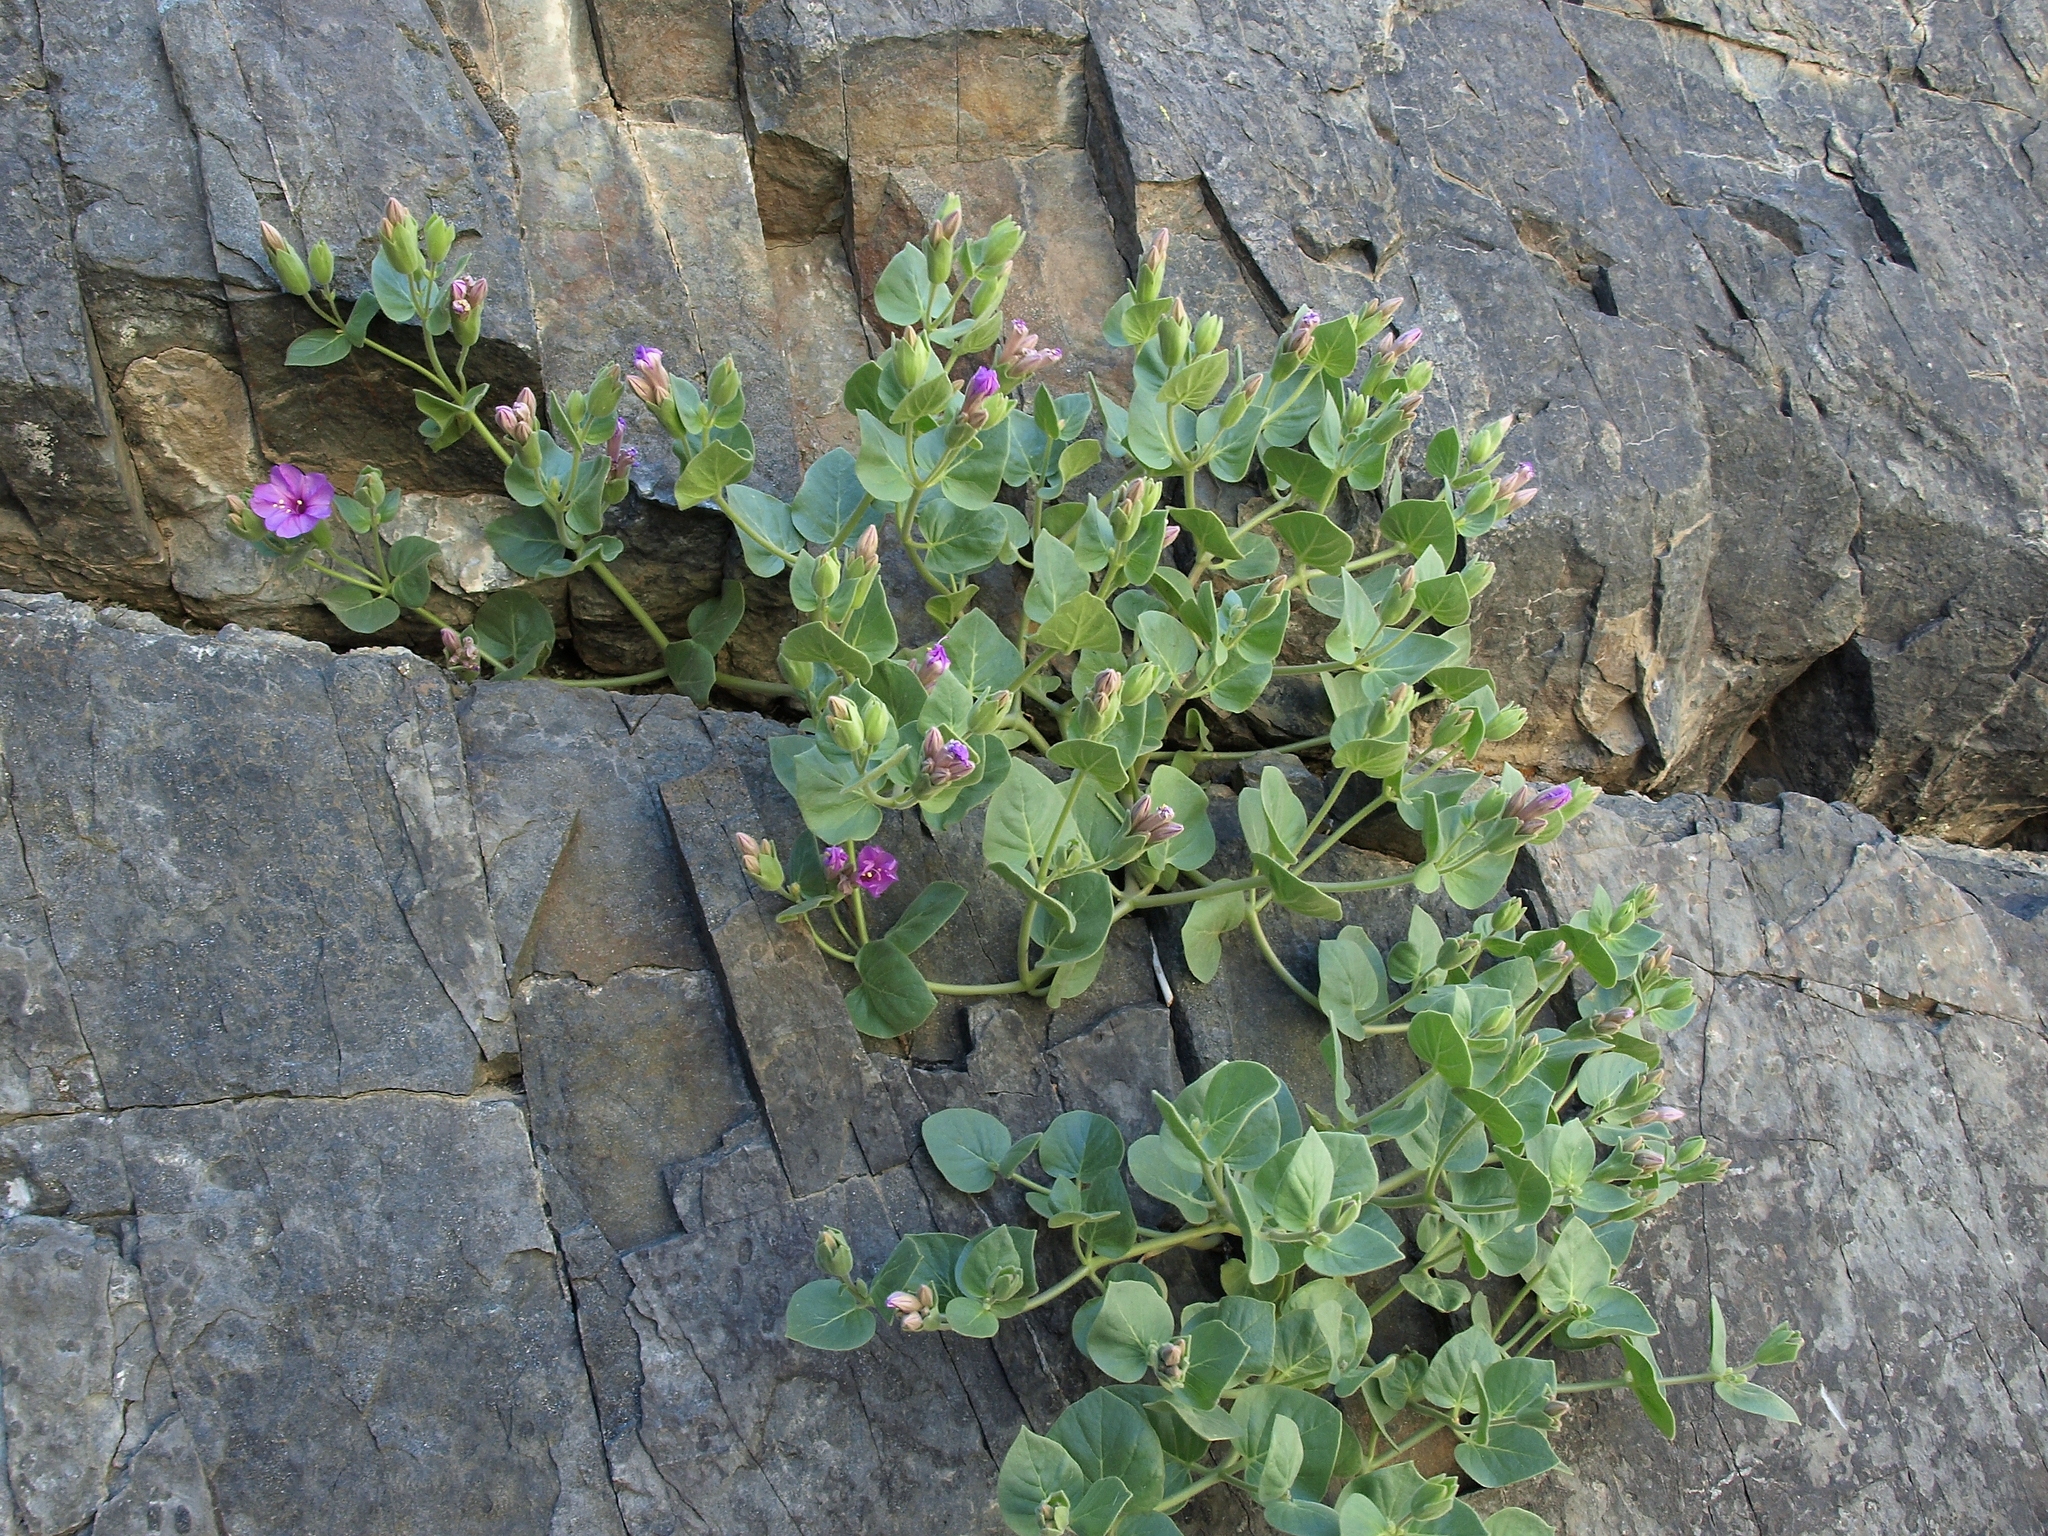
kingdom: Plantae
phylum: Tracheophyta
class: Magnoliopsida
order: Caryophyllales
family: Nyctaginaceae
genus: Mirabilis
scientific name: Mirabilis multiflora
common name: Froebel's four-o'clock
